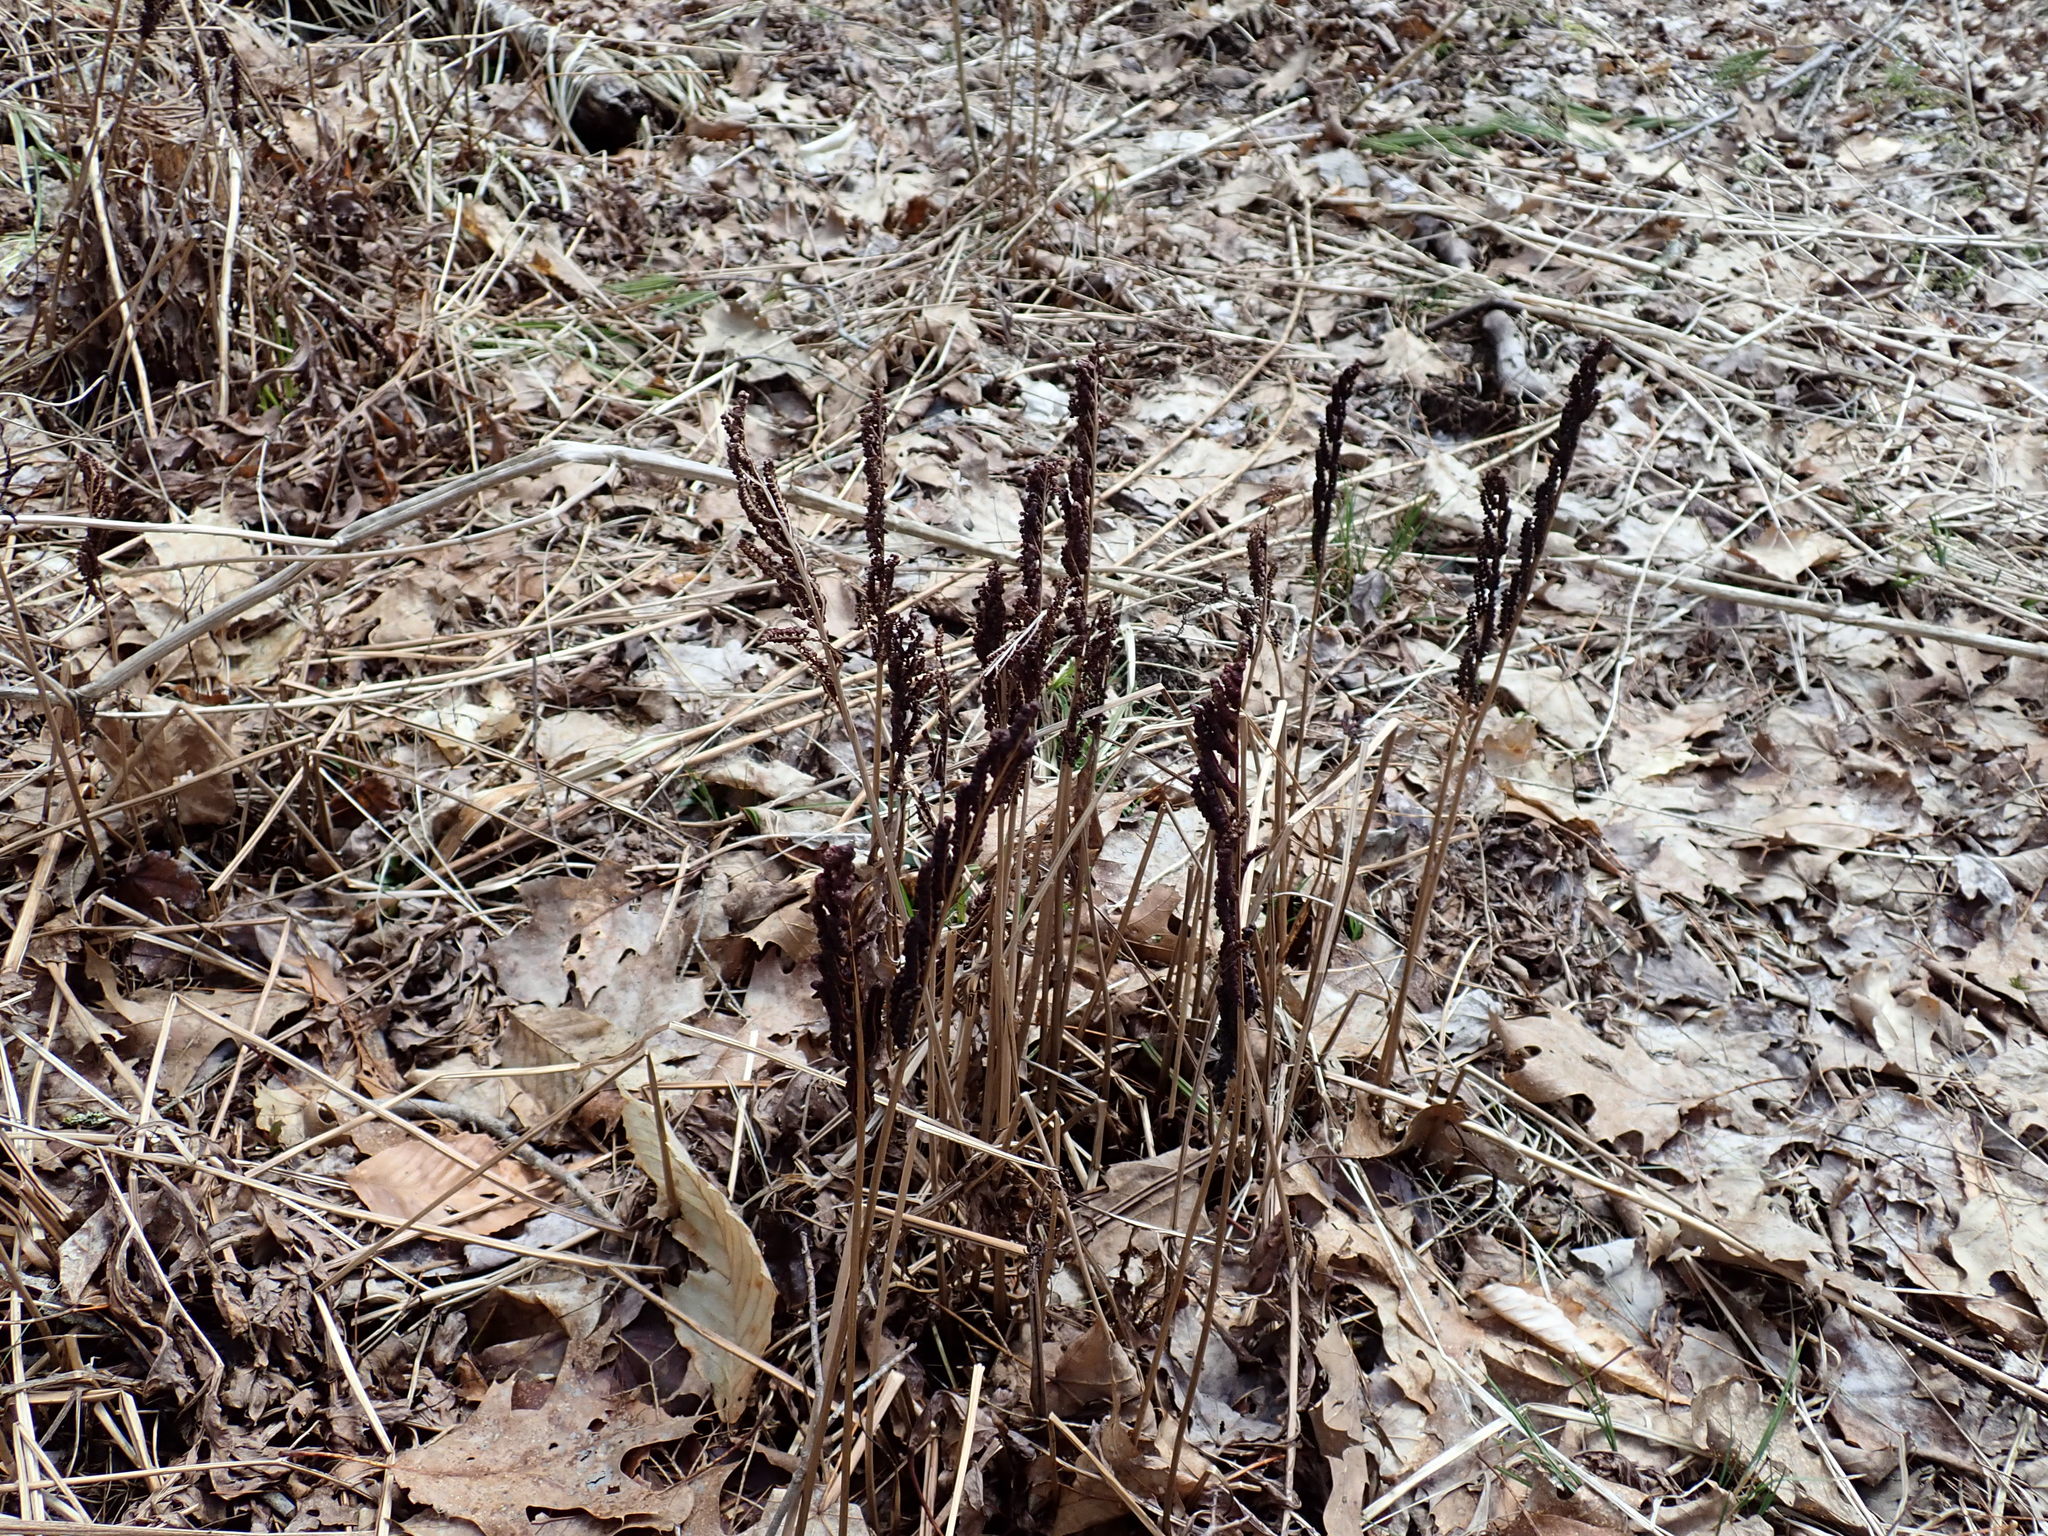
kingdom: Plantae
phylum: Tracheophyta
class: Polypodiopsida
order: Polypodiales
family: Onocleaceae
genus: Onoclea
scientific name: Onoclea sensibilis
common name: Sensitive fern
